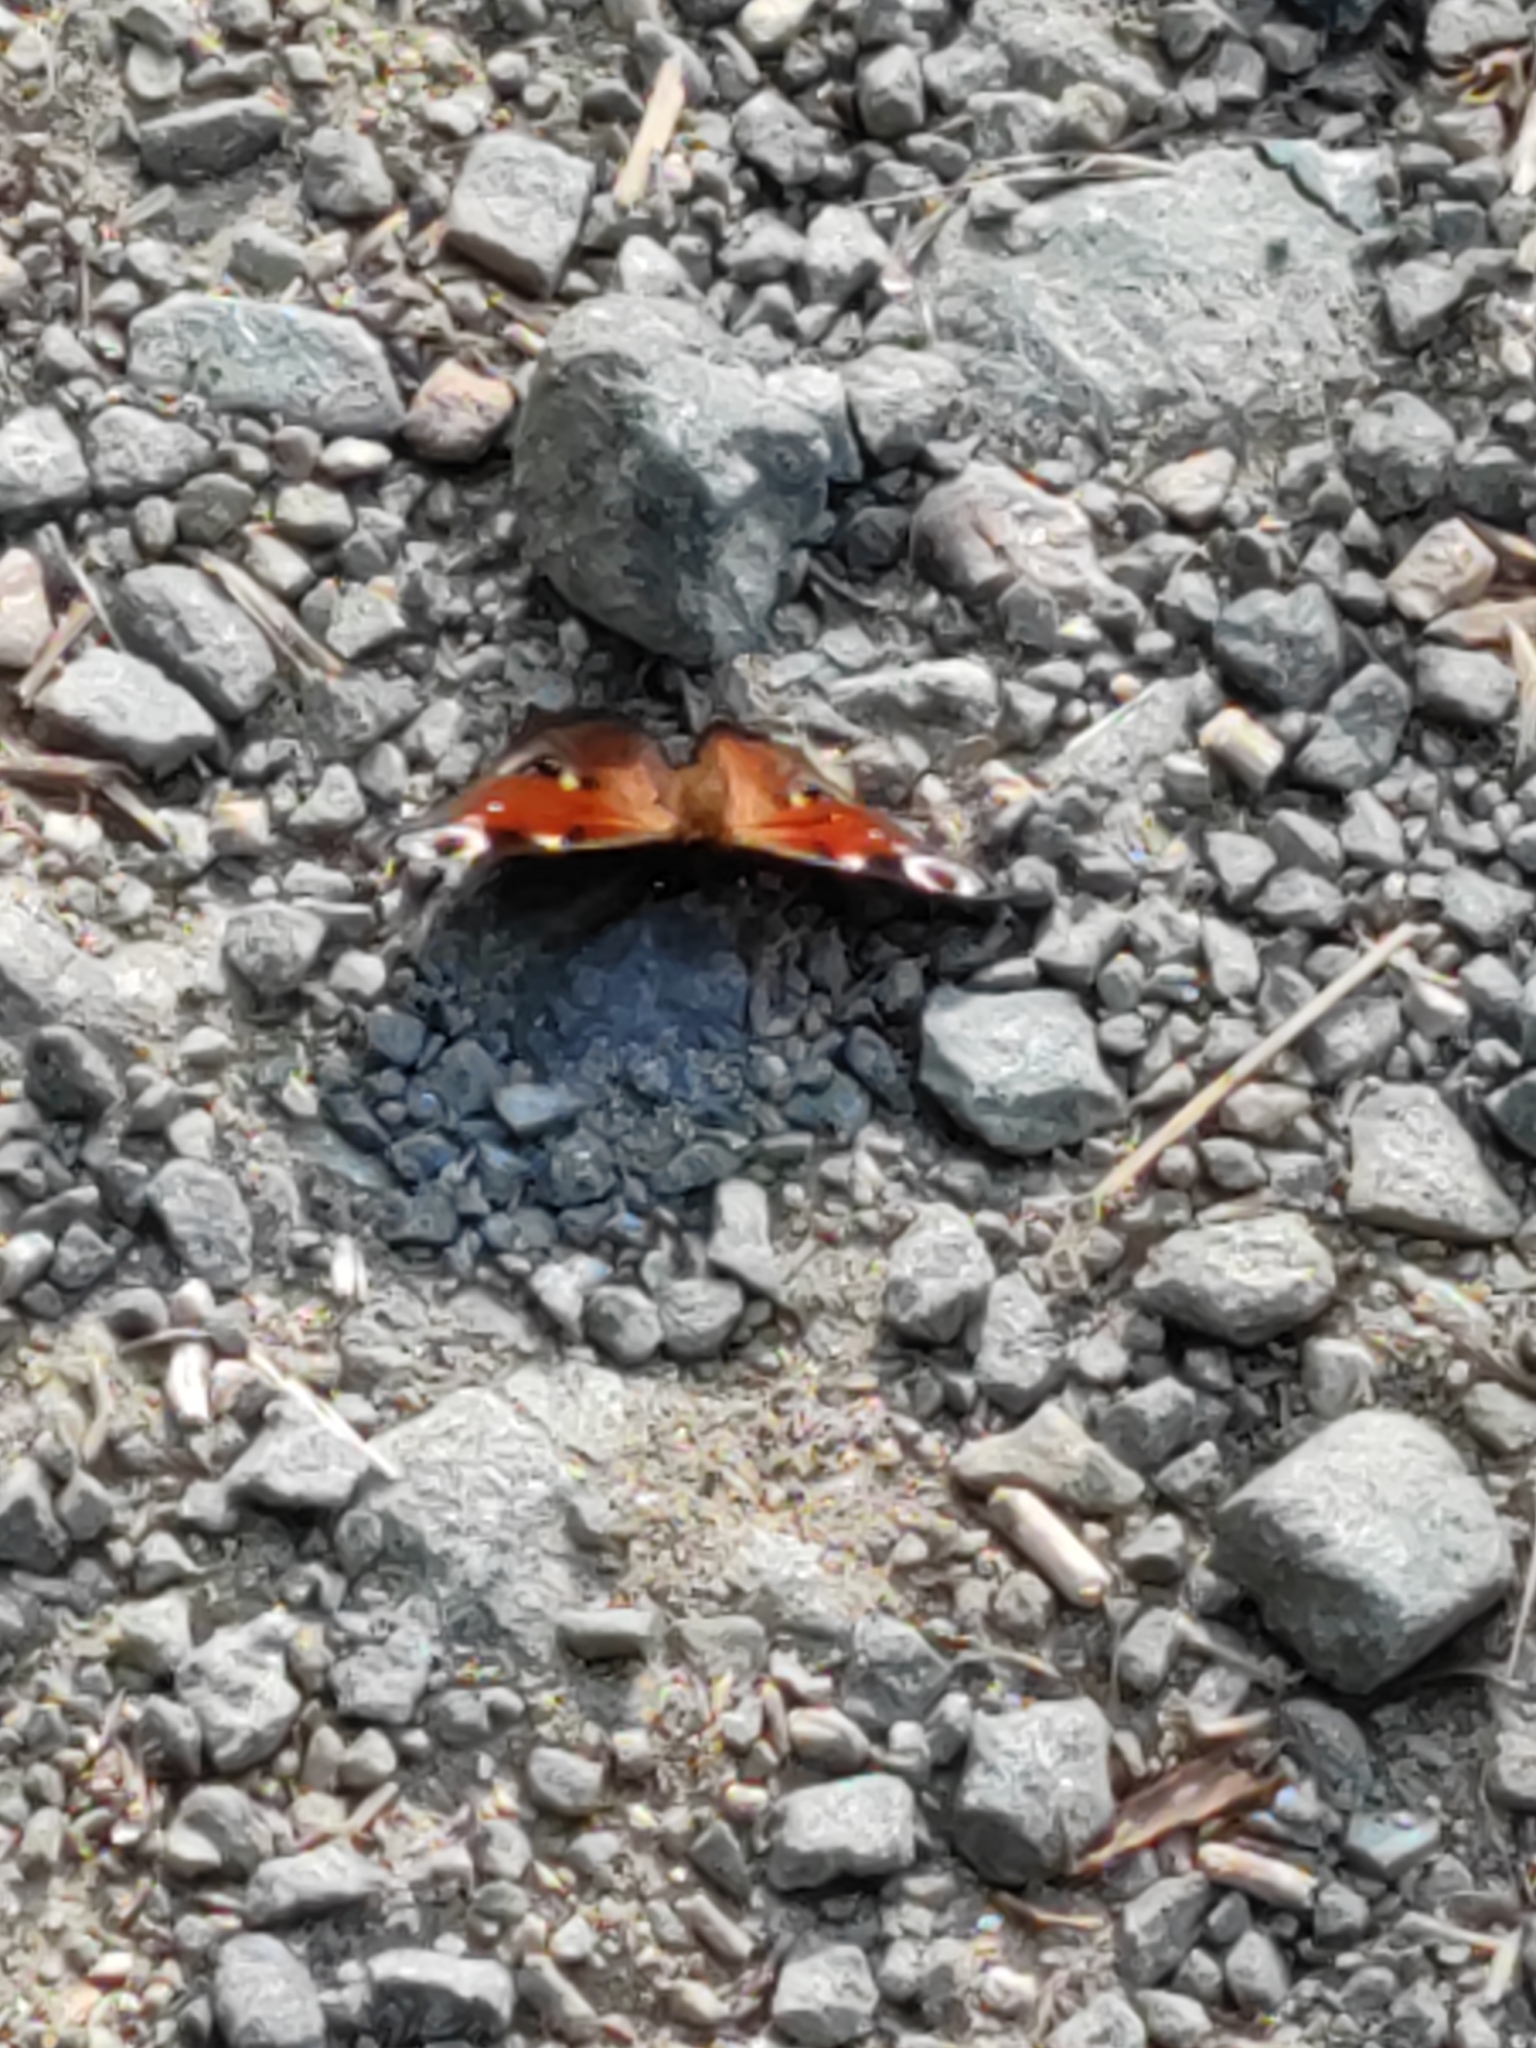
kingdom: Animalia
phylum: Arthropoda
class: Insecta
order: Lepidoptera
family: Nymphalidae
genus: Aglais
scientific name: Aglais io
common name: Peacock
